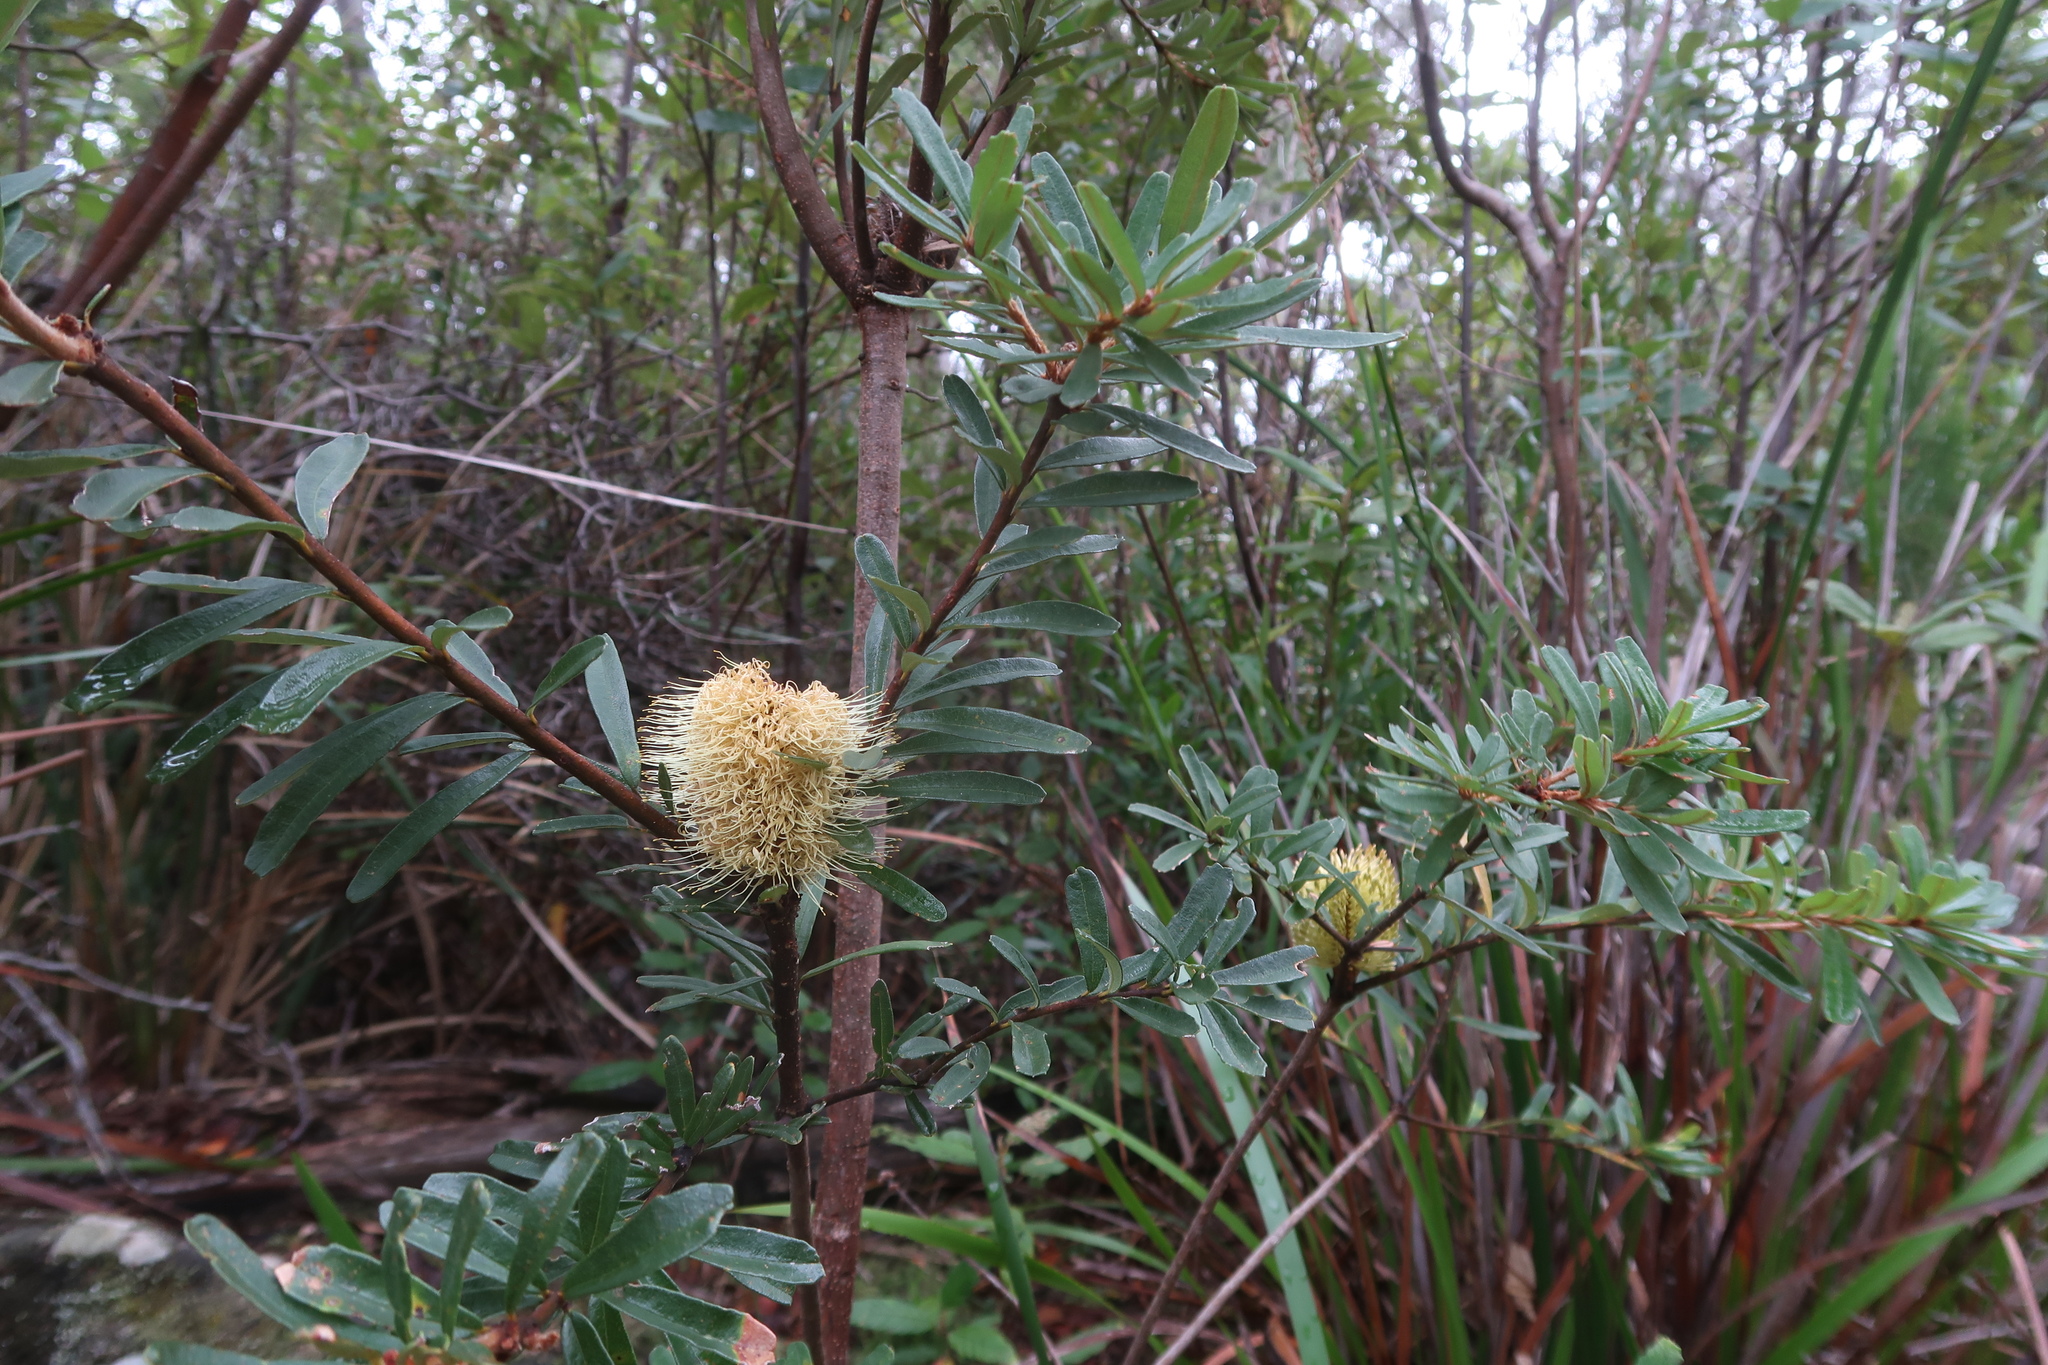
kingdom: Plantae
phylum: Tracheophyta
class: Magnoliopsida
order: Proteales
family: Proteaceae
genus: Banksia
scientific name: Banksia marginata
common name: Silver banksia
